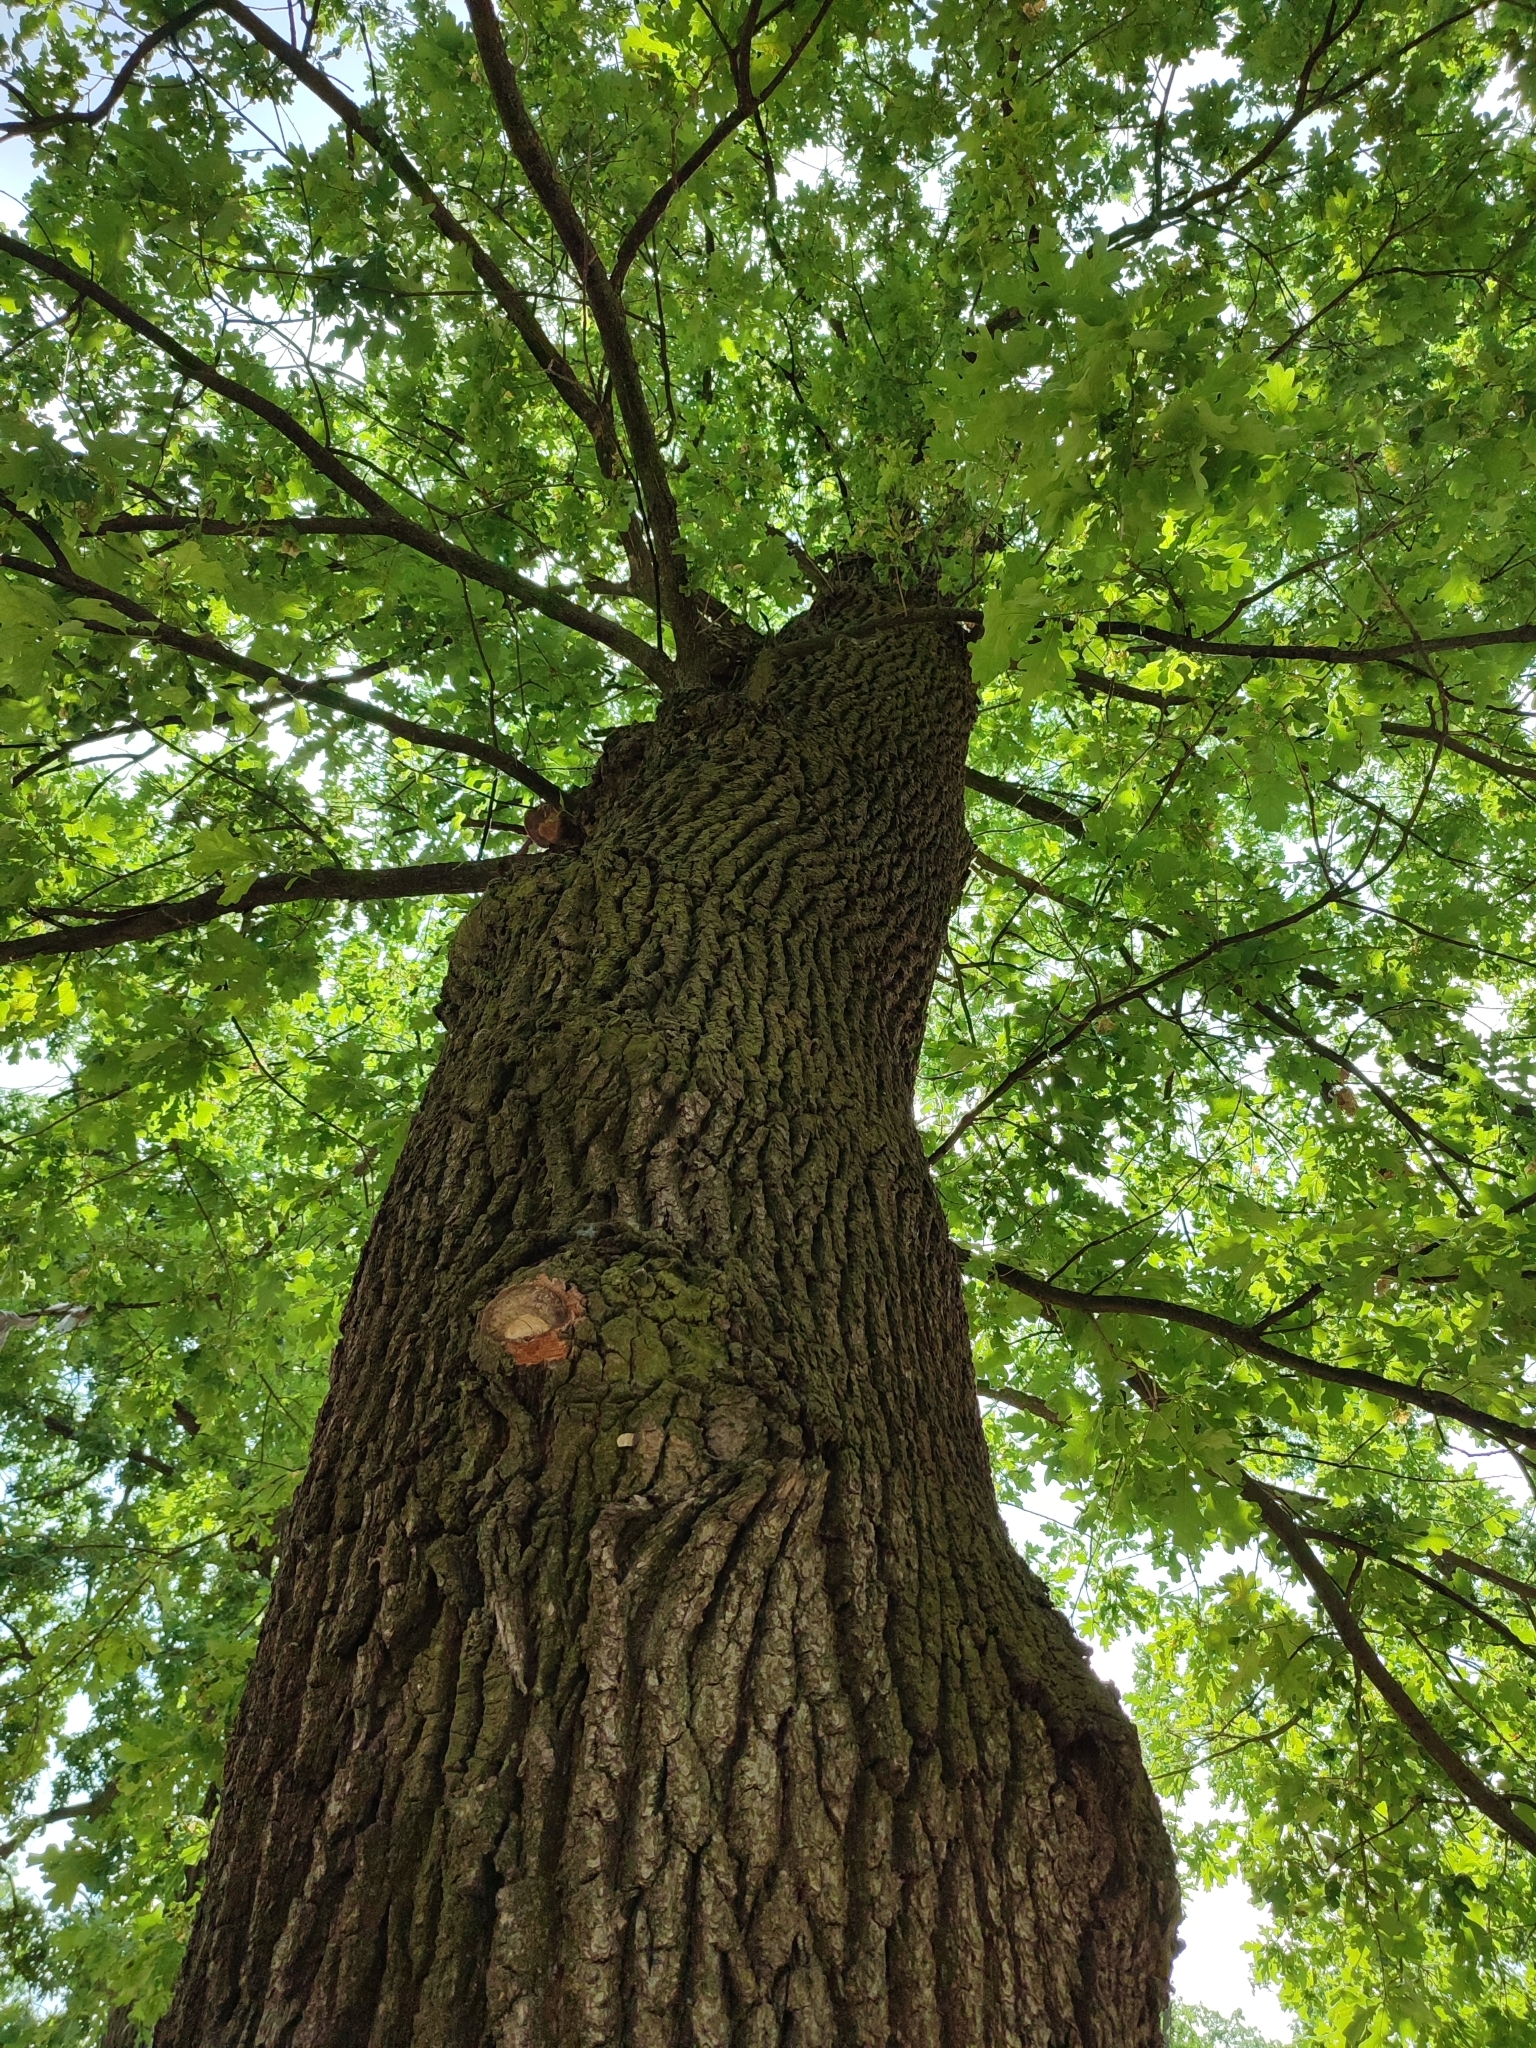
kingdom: Plantae
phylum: Tracheophyta
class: Magnoliopsida
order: Fagales
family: Fagaceae
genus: Quercus
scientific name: Quercus robur
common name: Pedunculate oak
